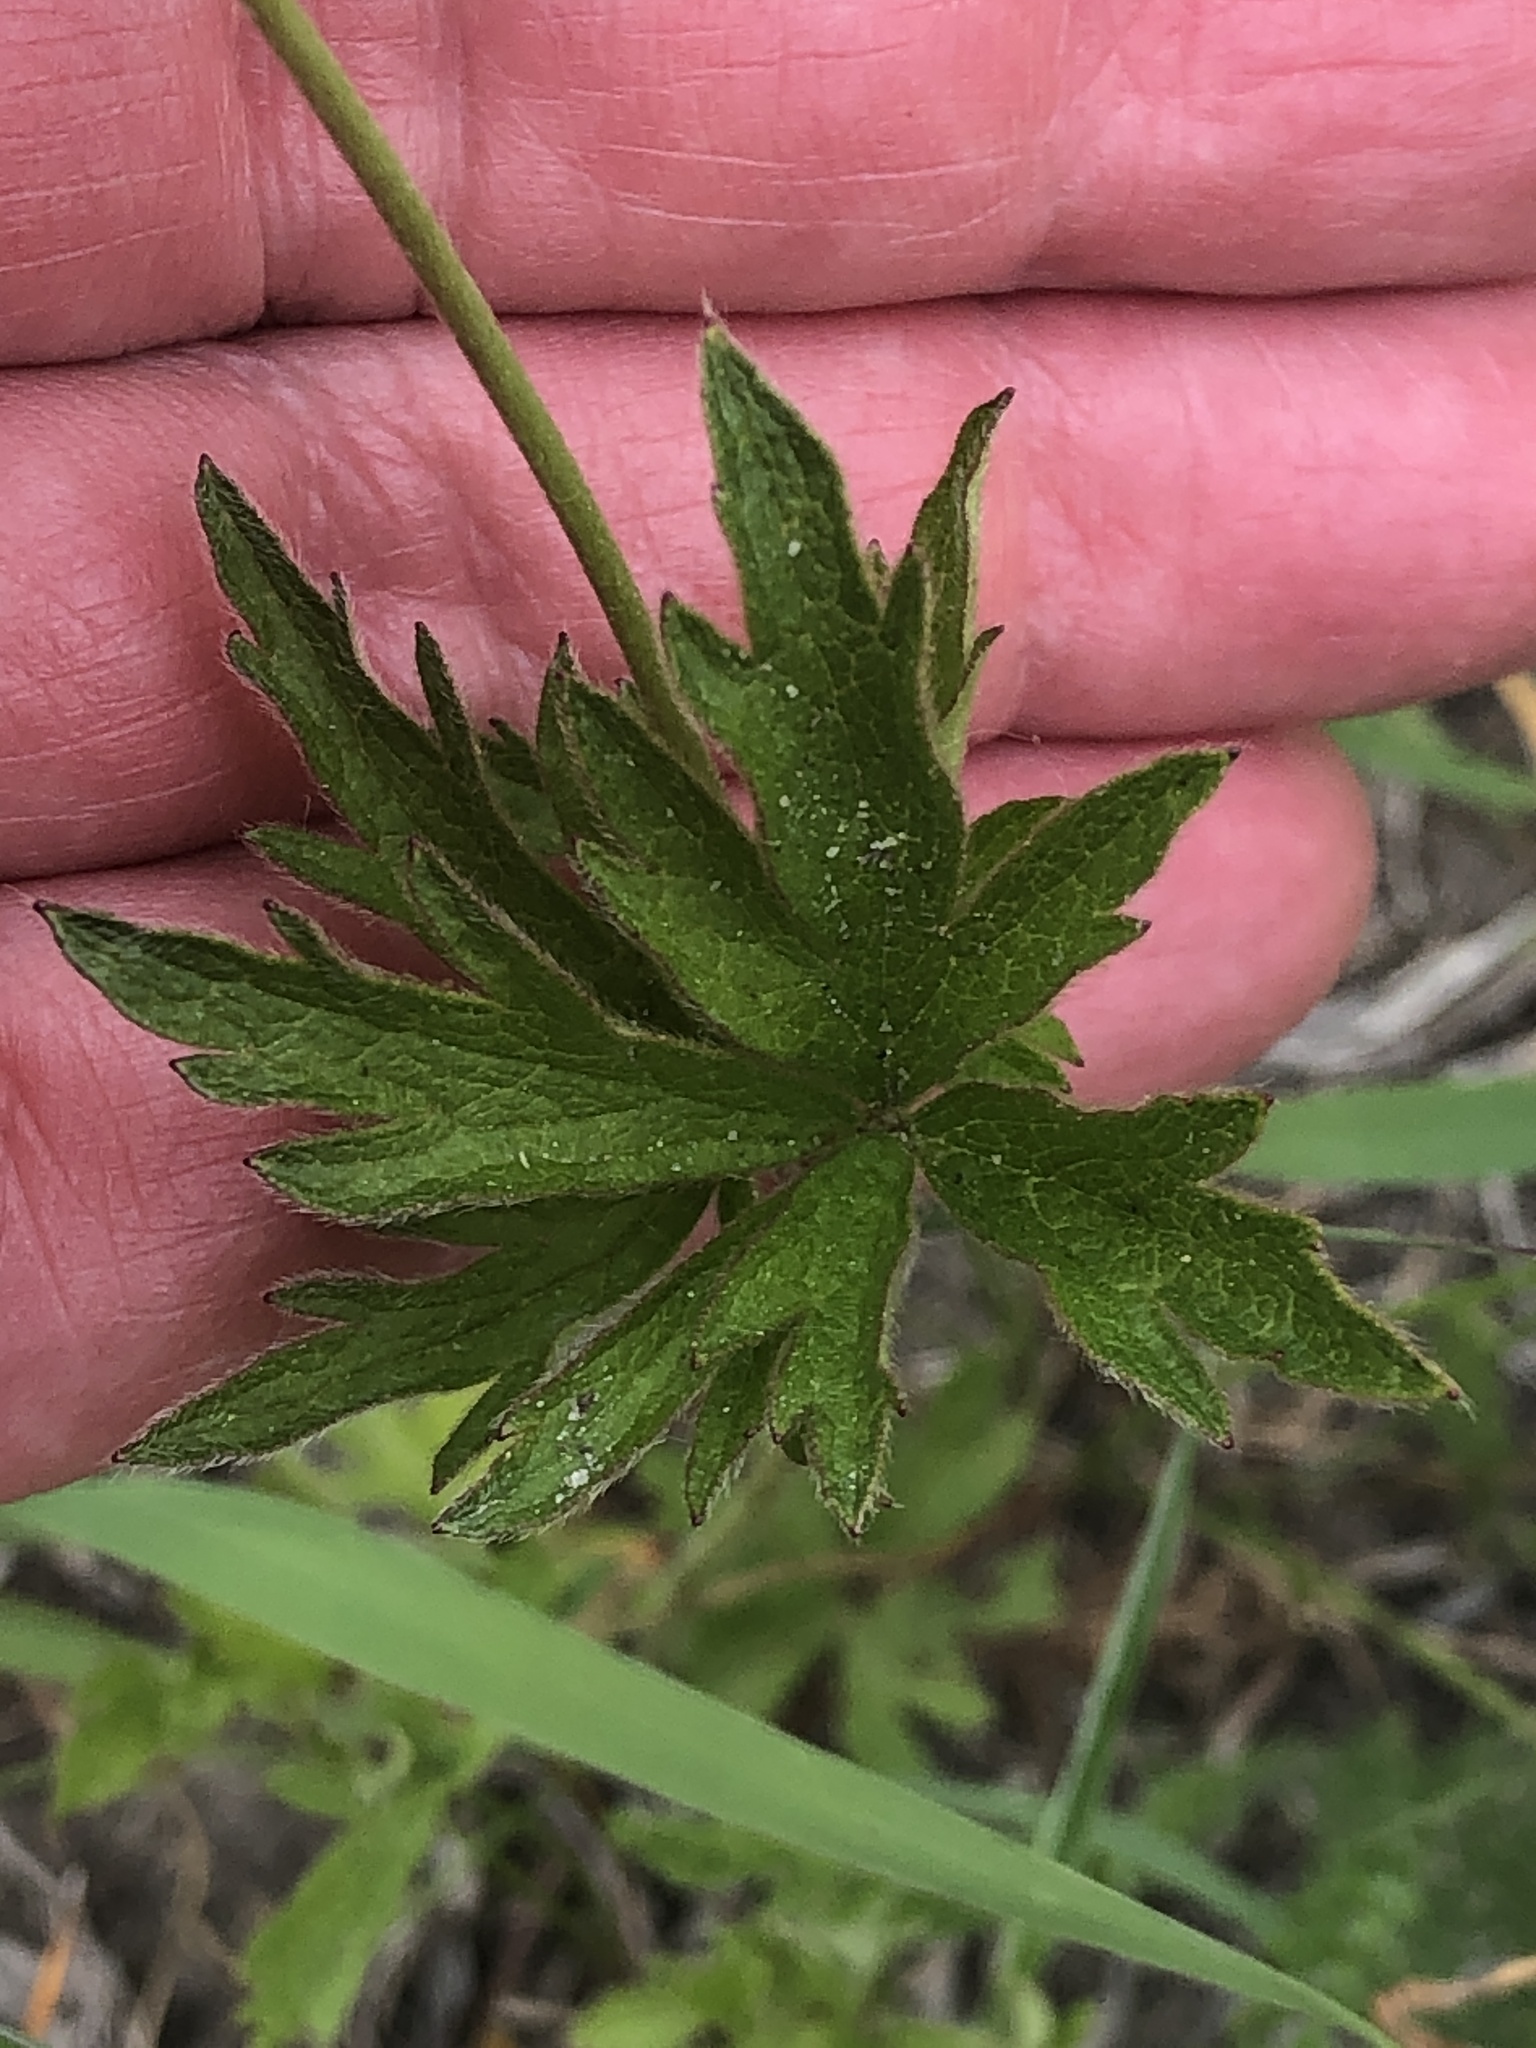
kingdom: Plantae
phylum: Tracheophyta
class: Magnoliopsida
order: Ranunculales
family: Ranunculaceae
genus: Anemone
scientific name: Anemone cylindrica
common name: Candle anemone
